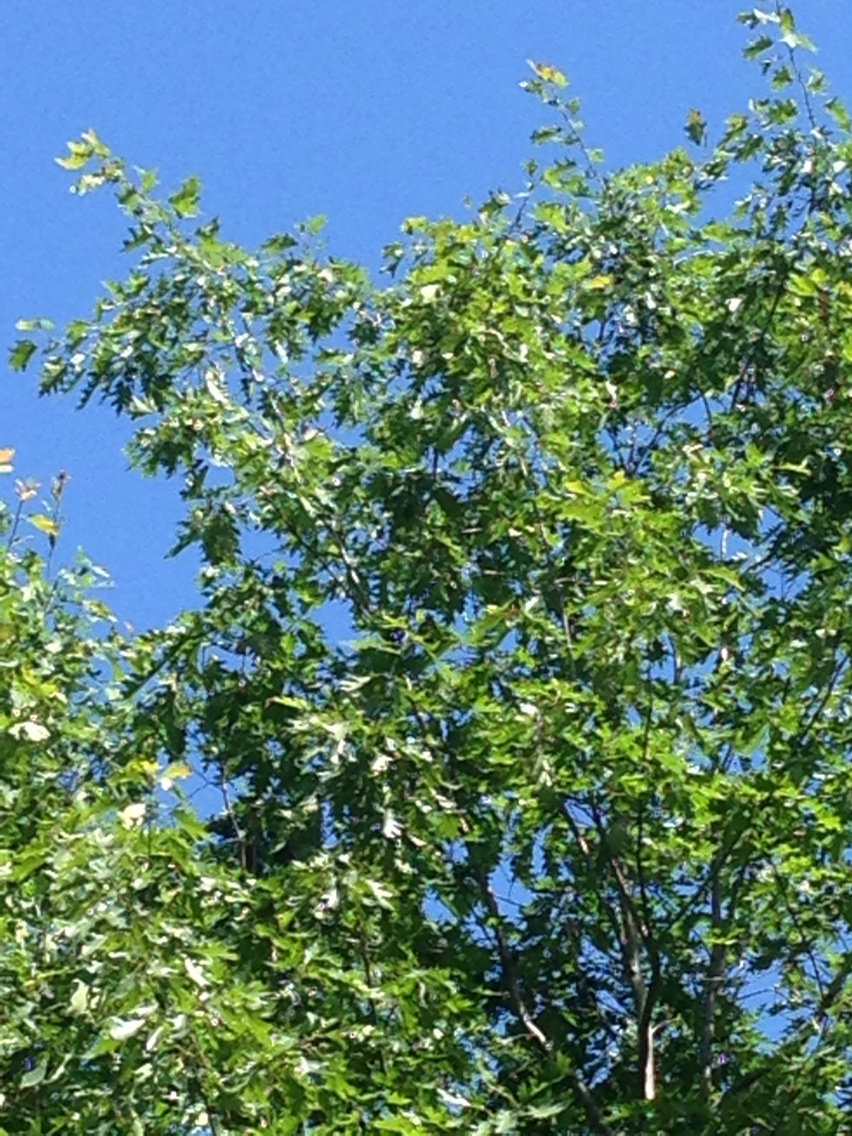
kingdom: Plantae
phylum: Tracheophyta
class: Magnoliopsida
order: Fagales
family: Fagaceae
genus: Quercus
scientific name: Quercus rubra
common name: Red oak
